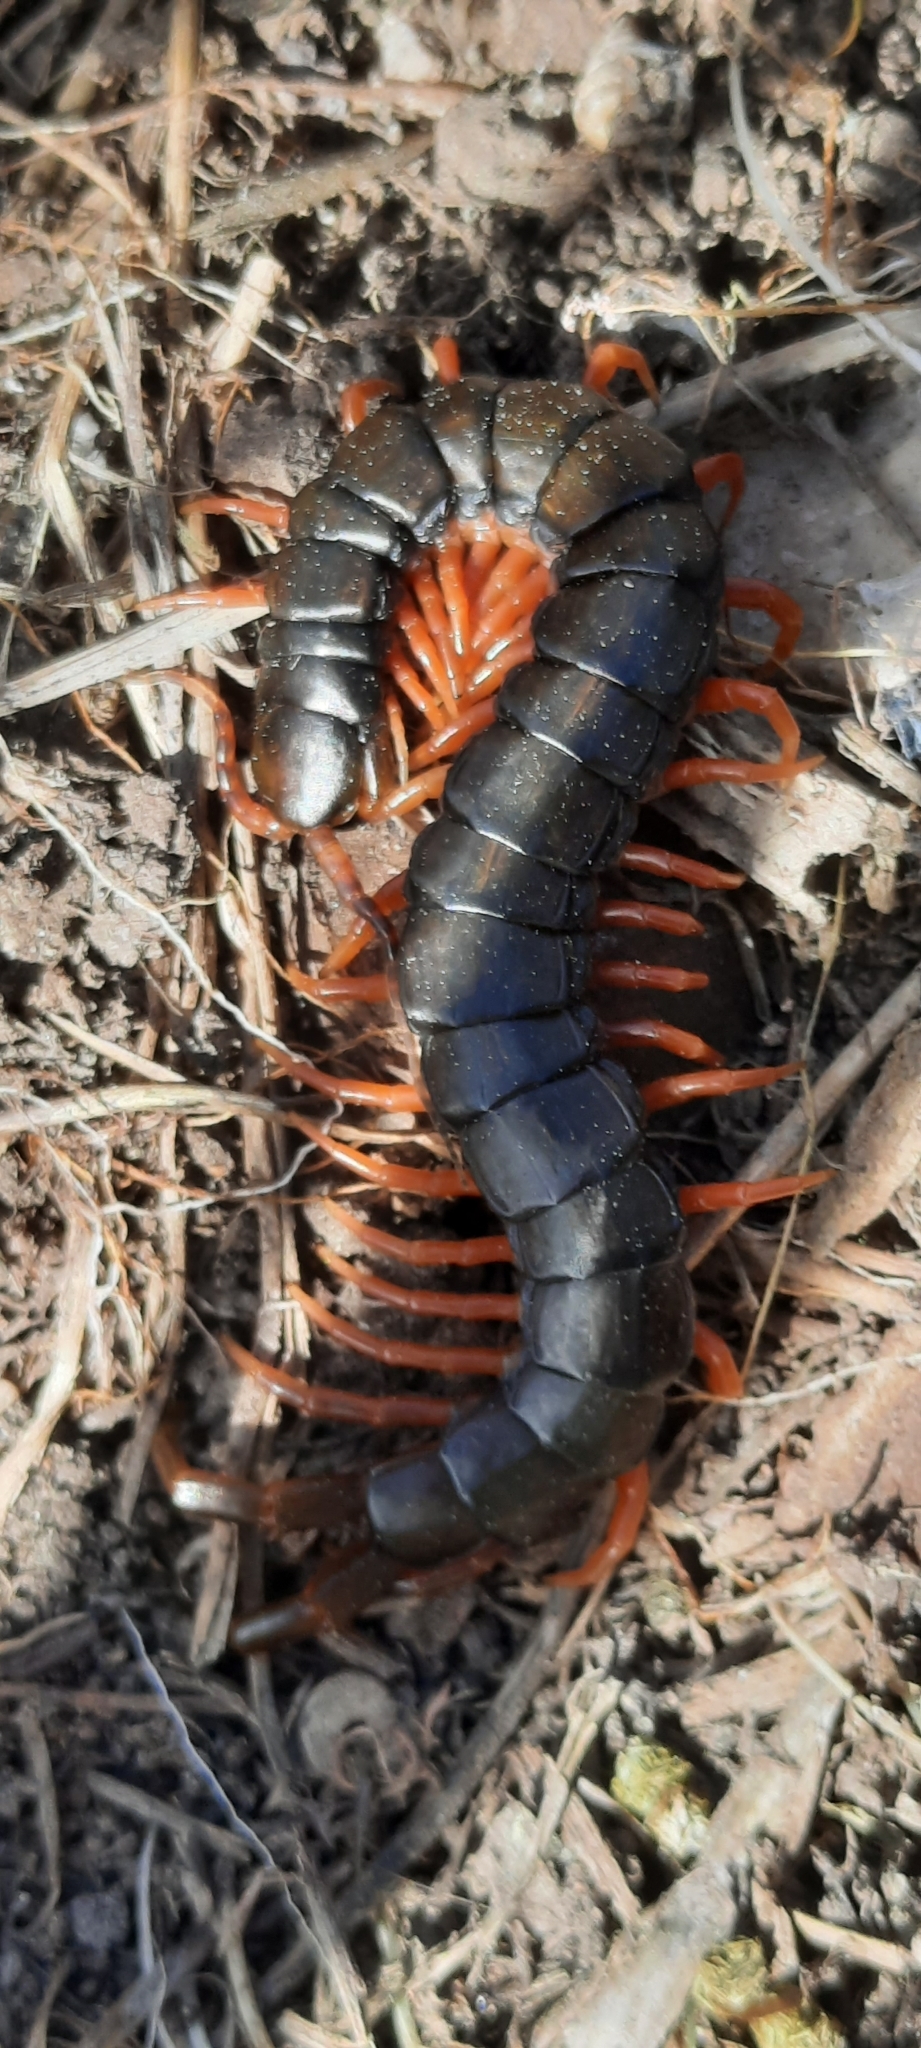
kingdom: Animalia
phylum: Arthropoda
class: Chilopoda
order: Scolopendromorpha
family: Scolopendridae
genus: Scolopendra
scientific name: Scolopendra cingulata
